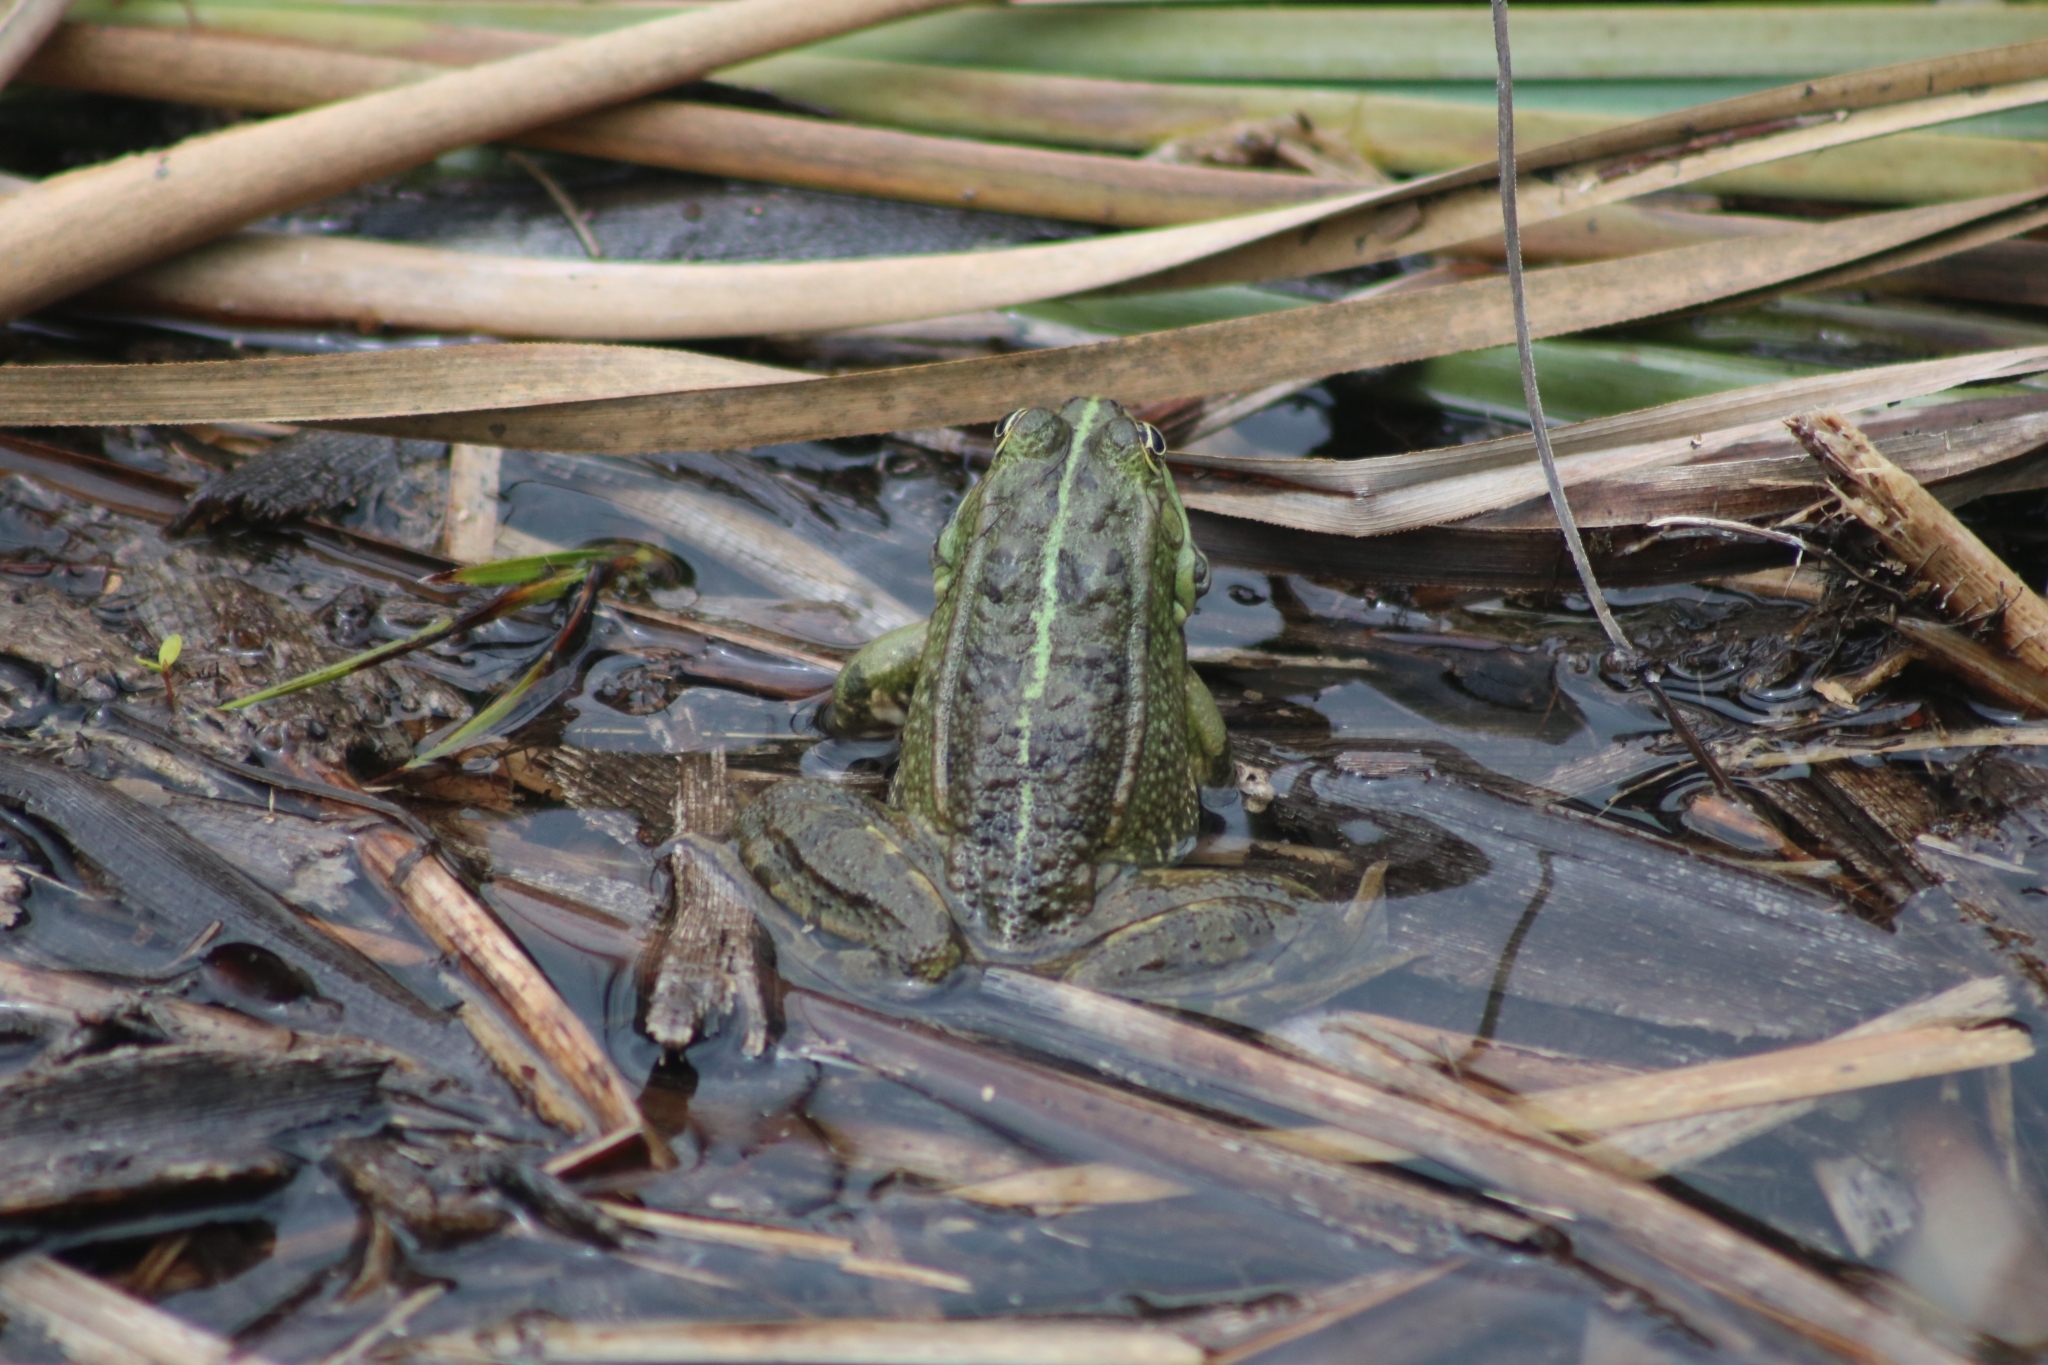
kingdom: Animalia
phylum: Chordata
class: Amphibia
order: Anura
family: Ranidae
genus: Pelophylax
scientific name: Pelophylax ridibundus
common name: Marsh frog
